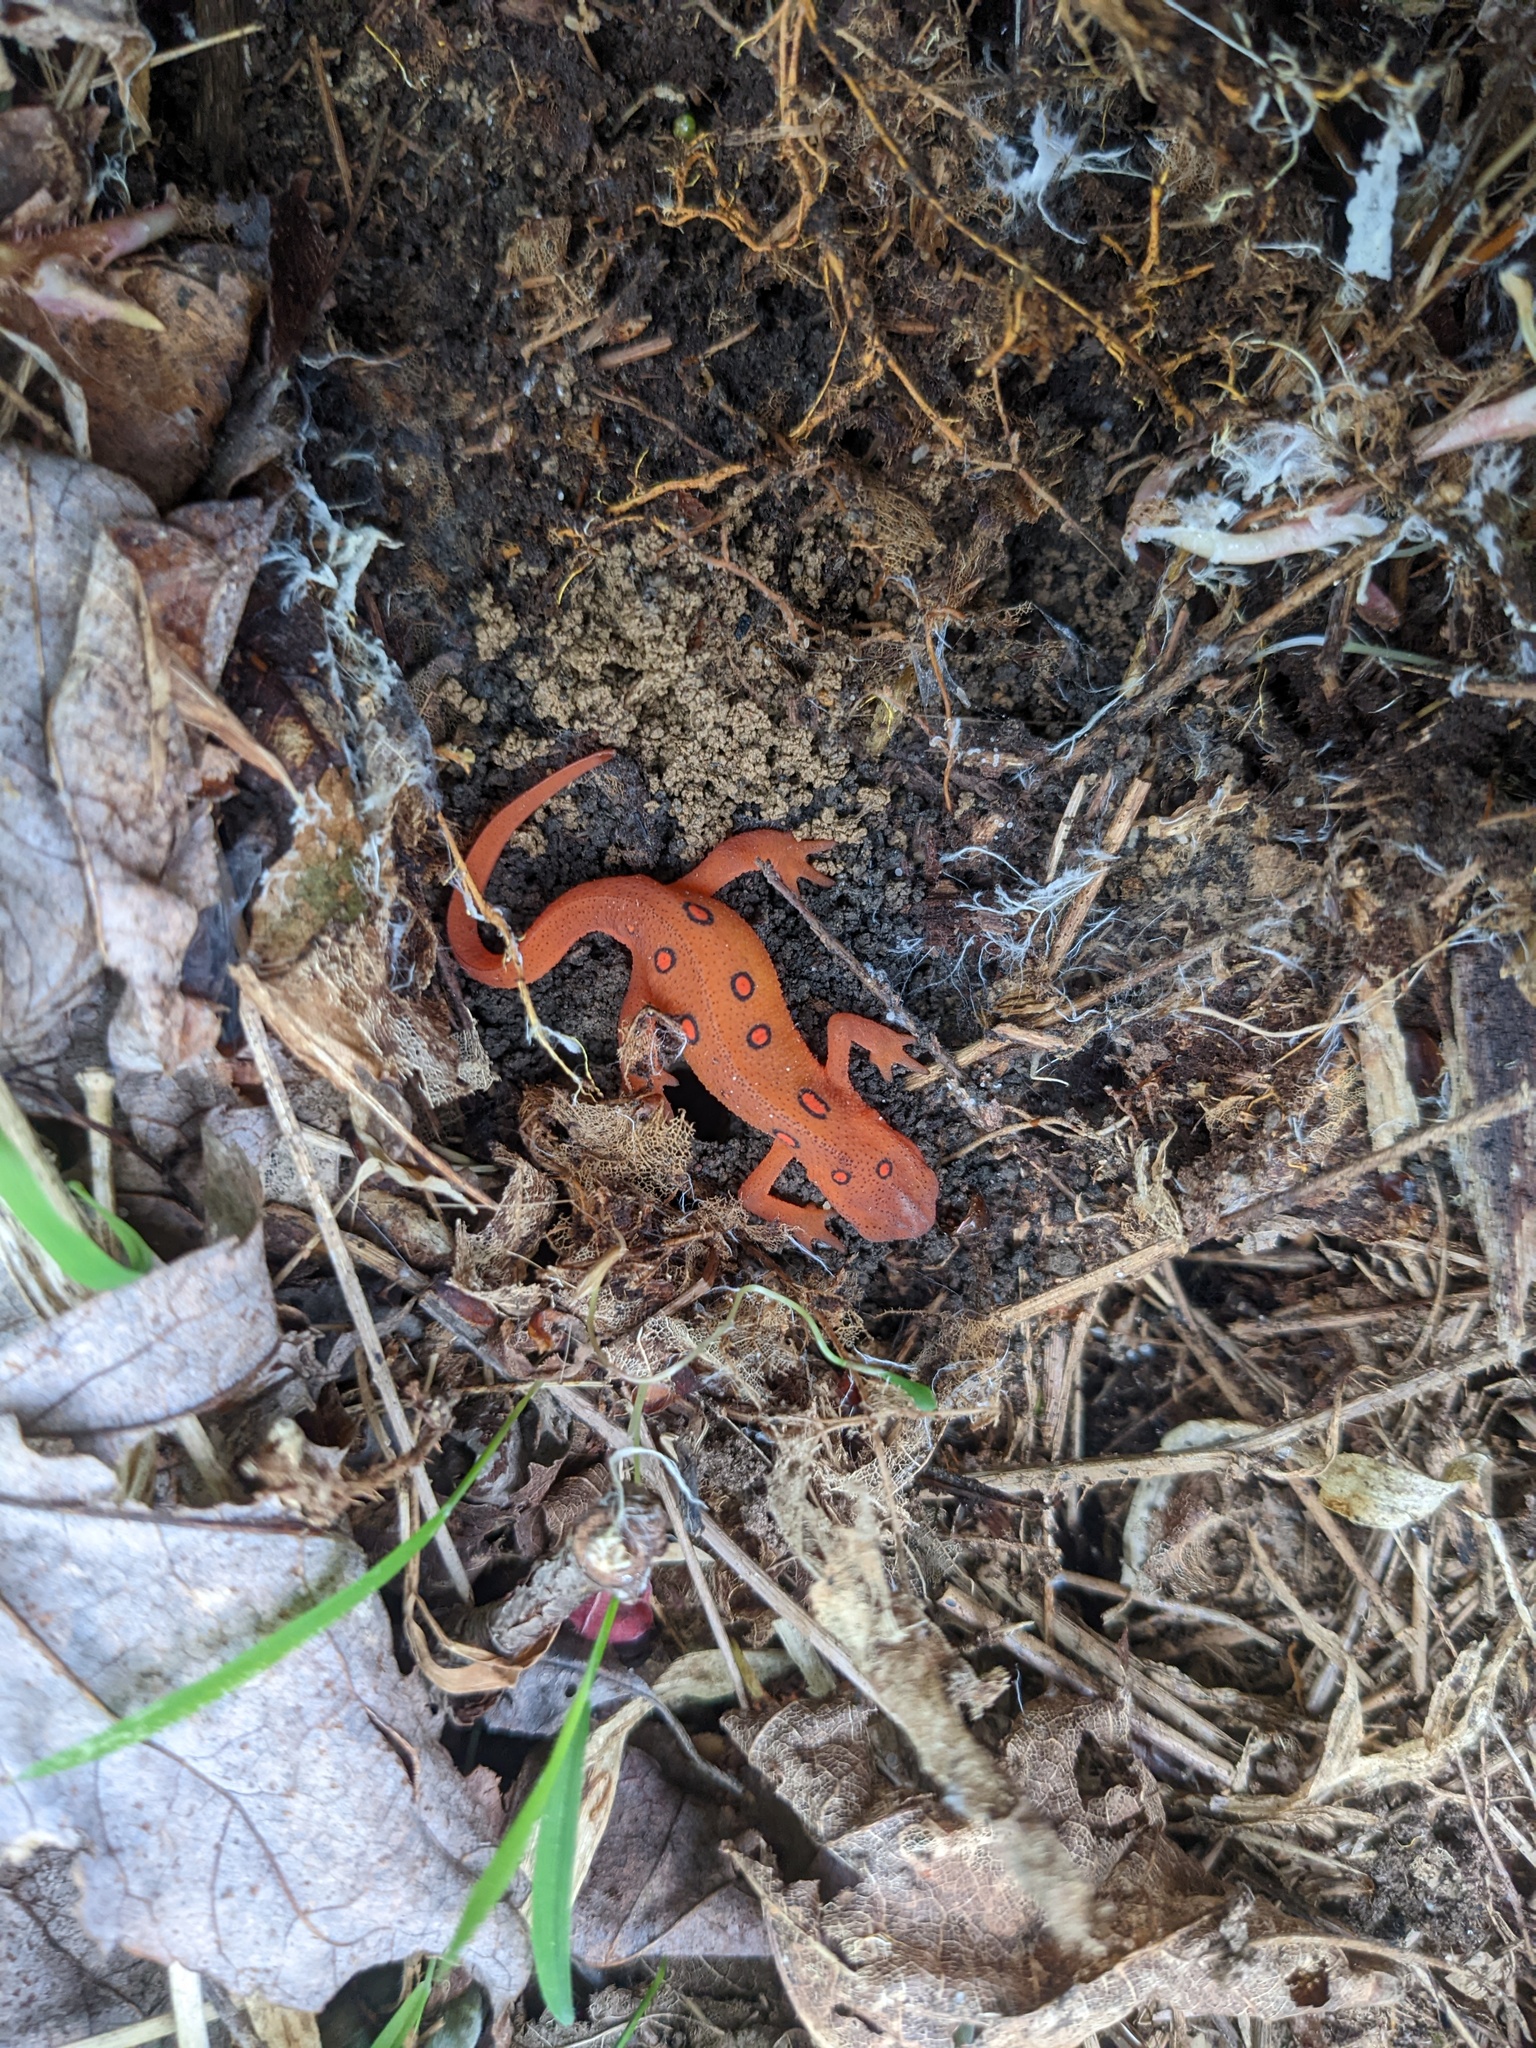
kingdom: Animalia
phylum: Chordata
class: Amphibia
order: Caudata
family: Salamandridae
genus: Notophthalmus
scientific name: Notophthalmus viridescens
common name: Eastern newt
